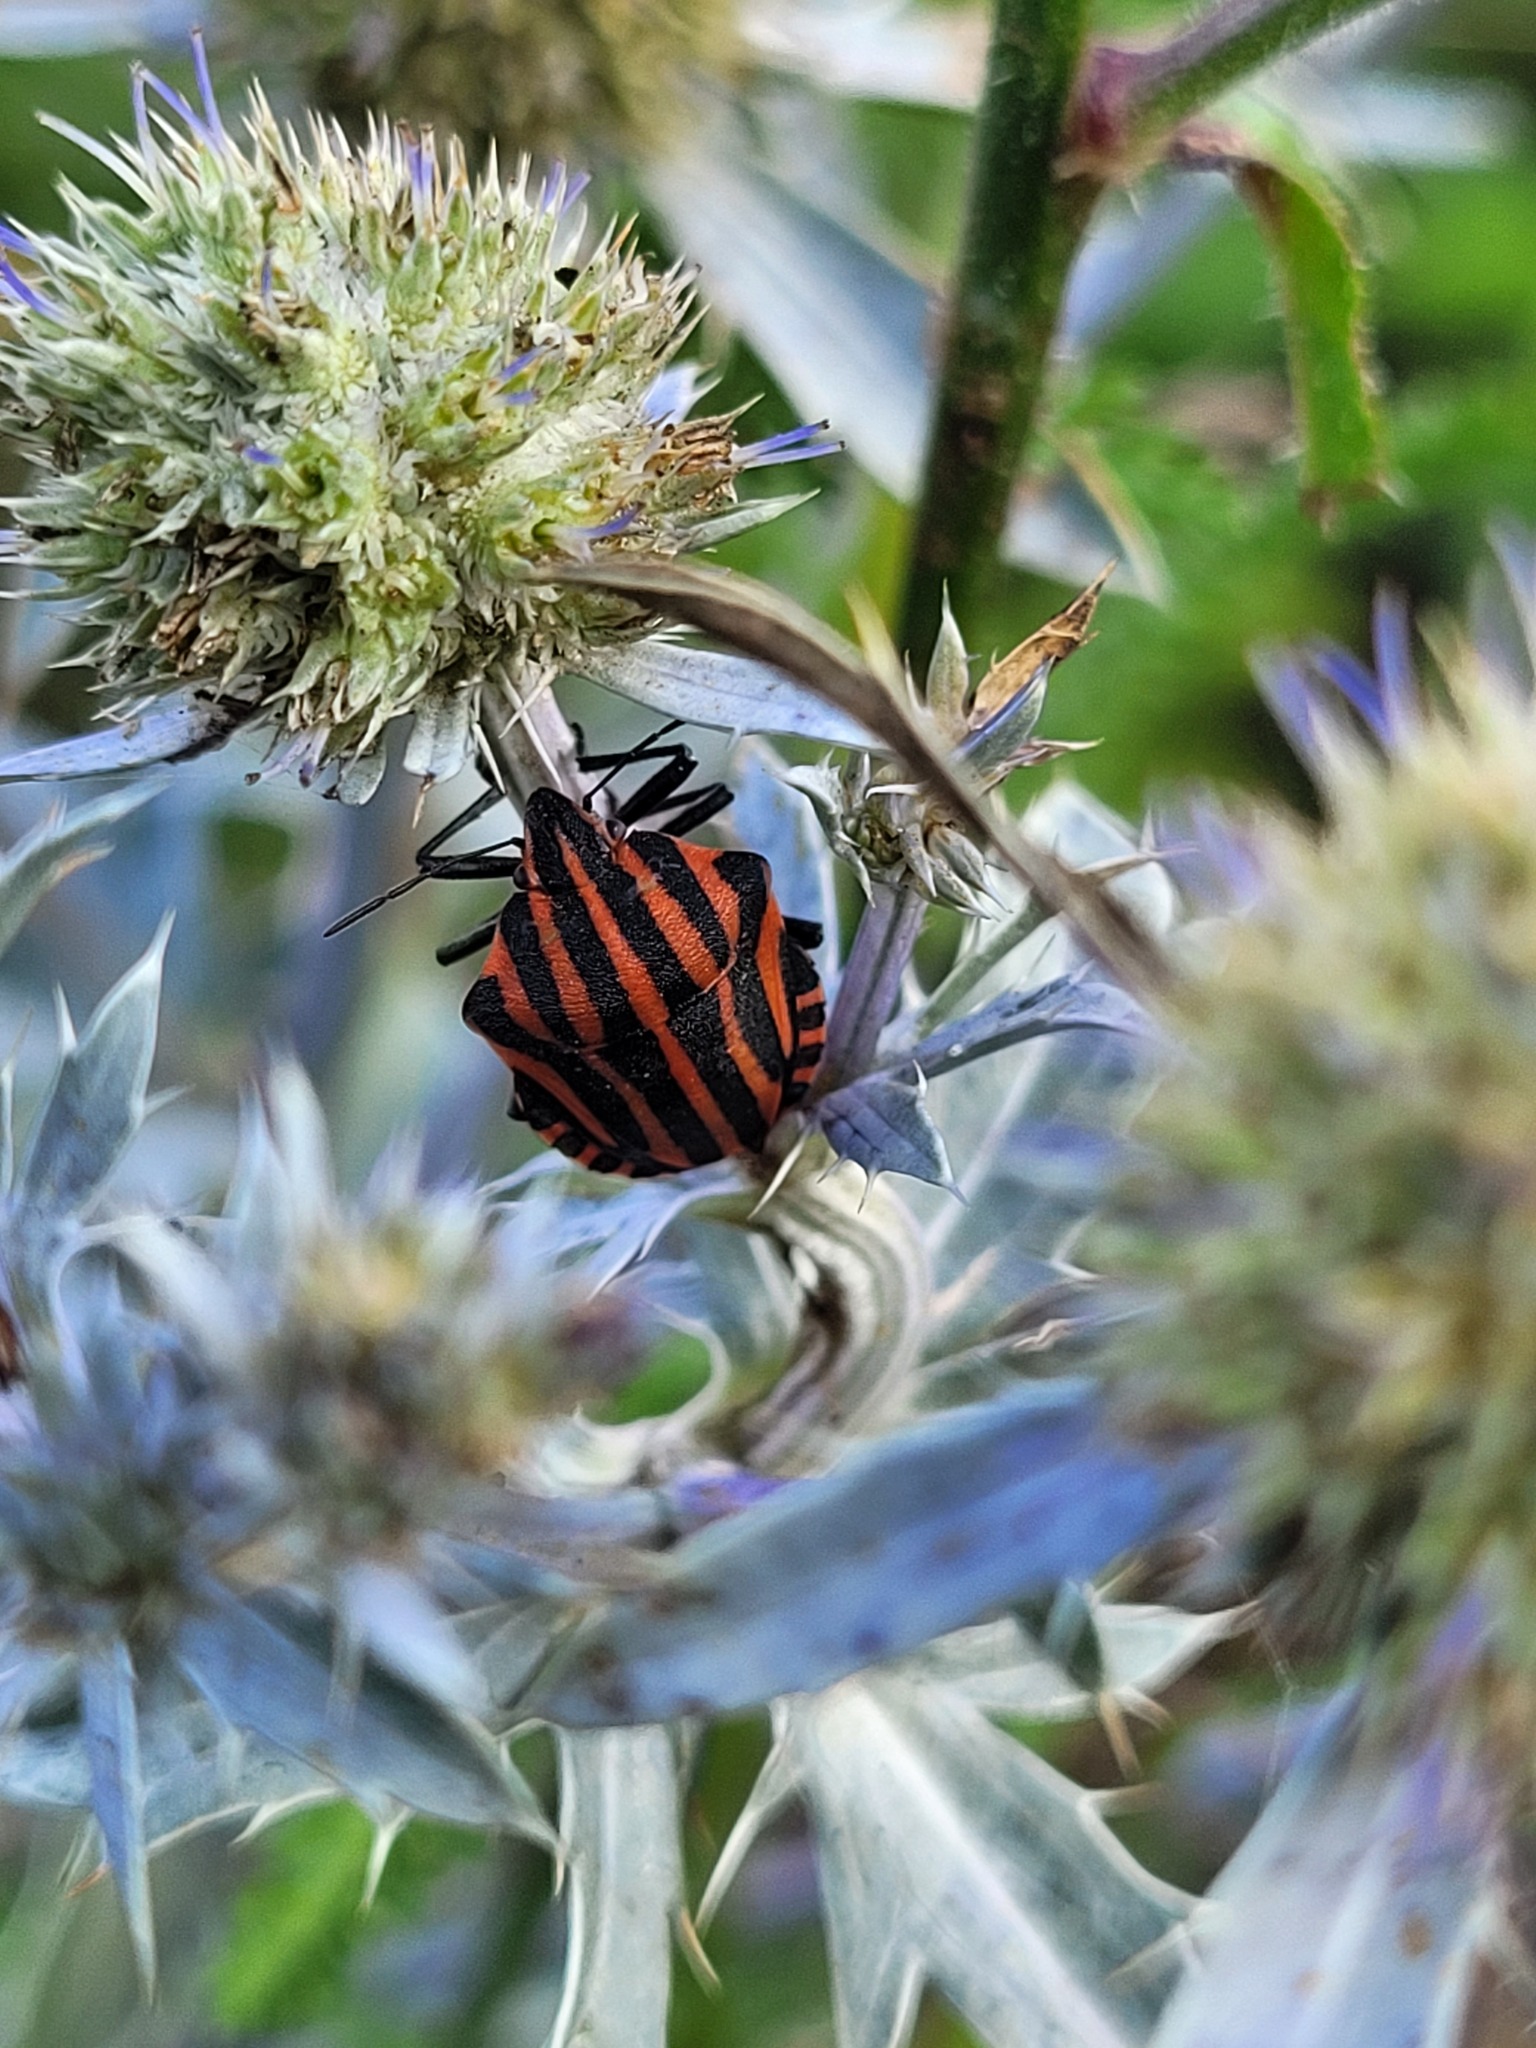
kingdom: Animalia
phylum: Arthropoda
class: Insecta
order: Hemiptera
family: Pentatomidae
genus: Graphosoma
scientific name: Graphosoma italicum
